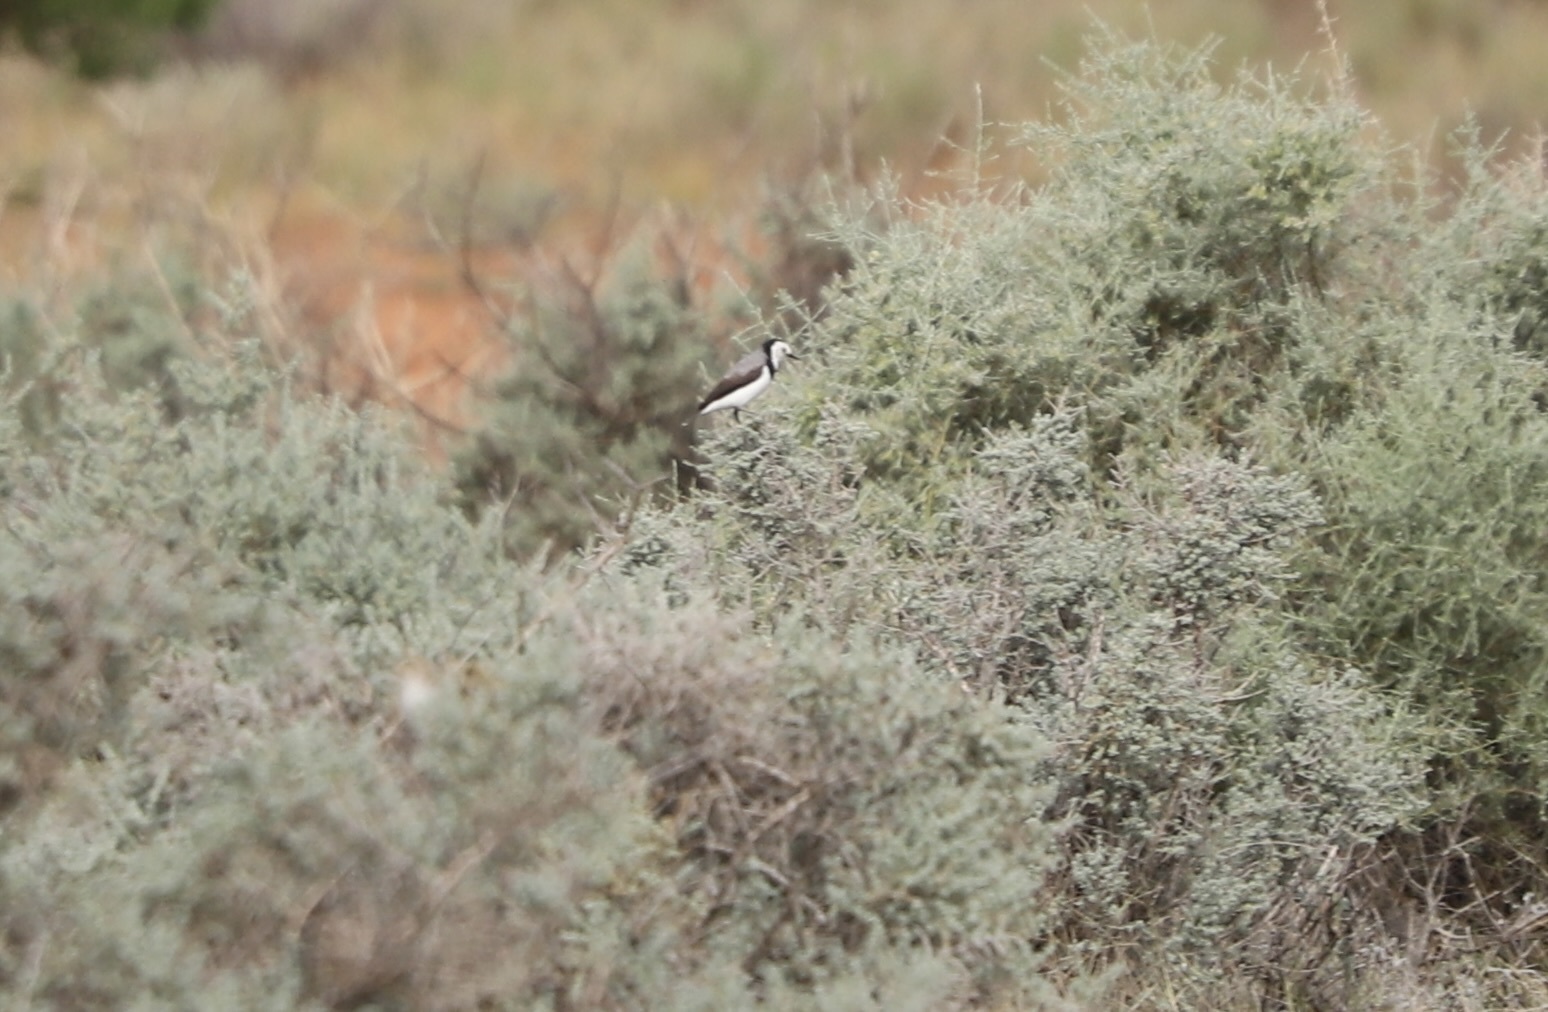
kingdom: Animalia
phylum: Chordata
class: Aves
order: Passeriformes
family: Meliphagidae
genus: Epthianura
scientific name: Epthianura albifrons
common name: White-fronted chat
